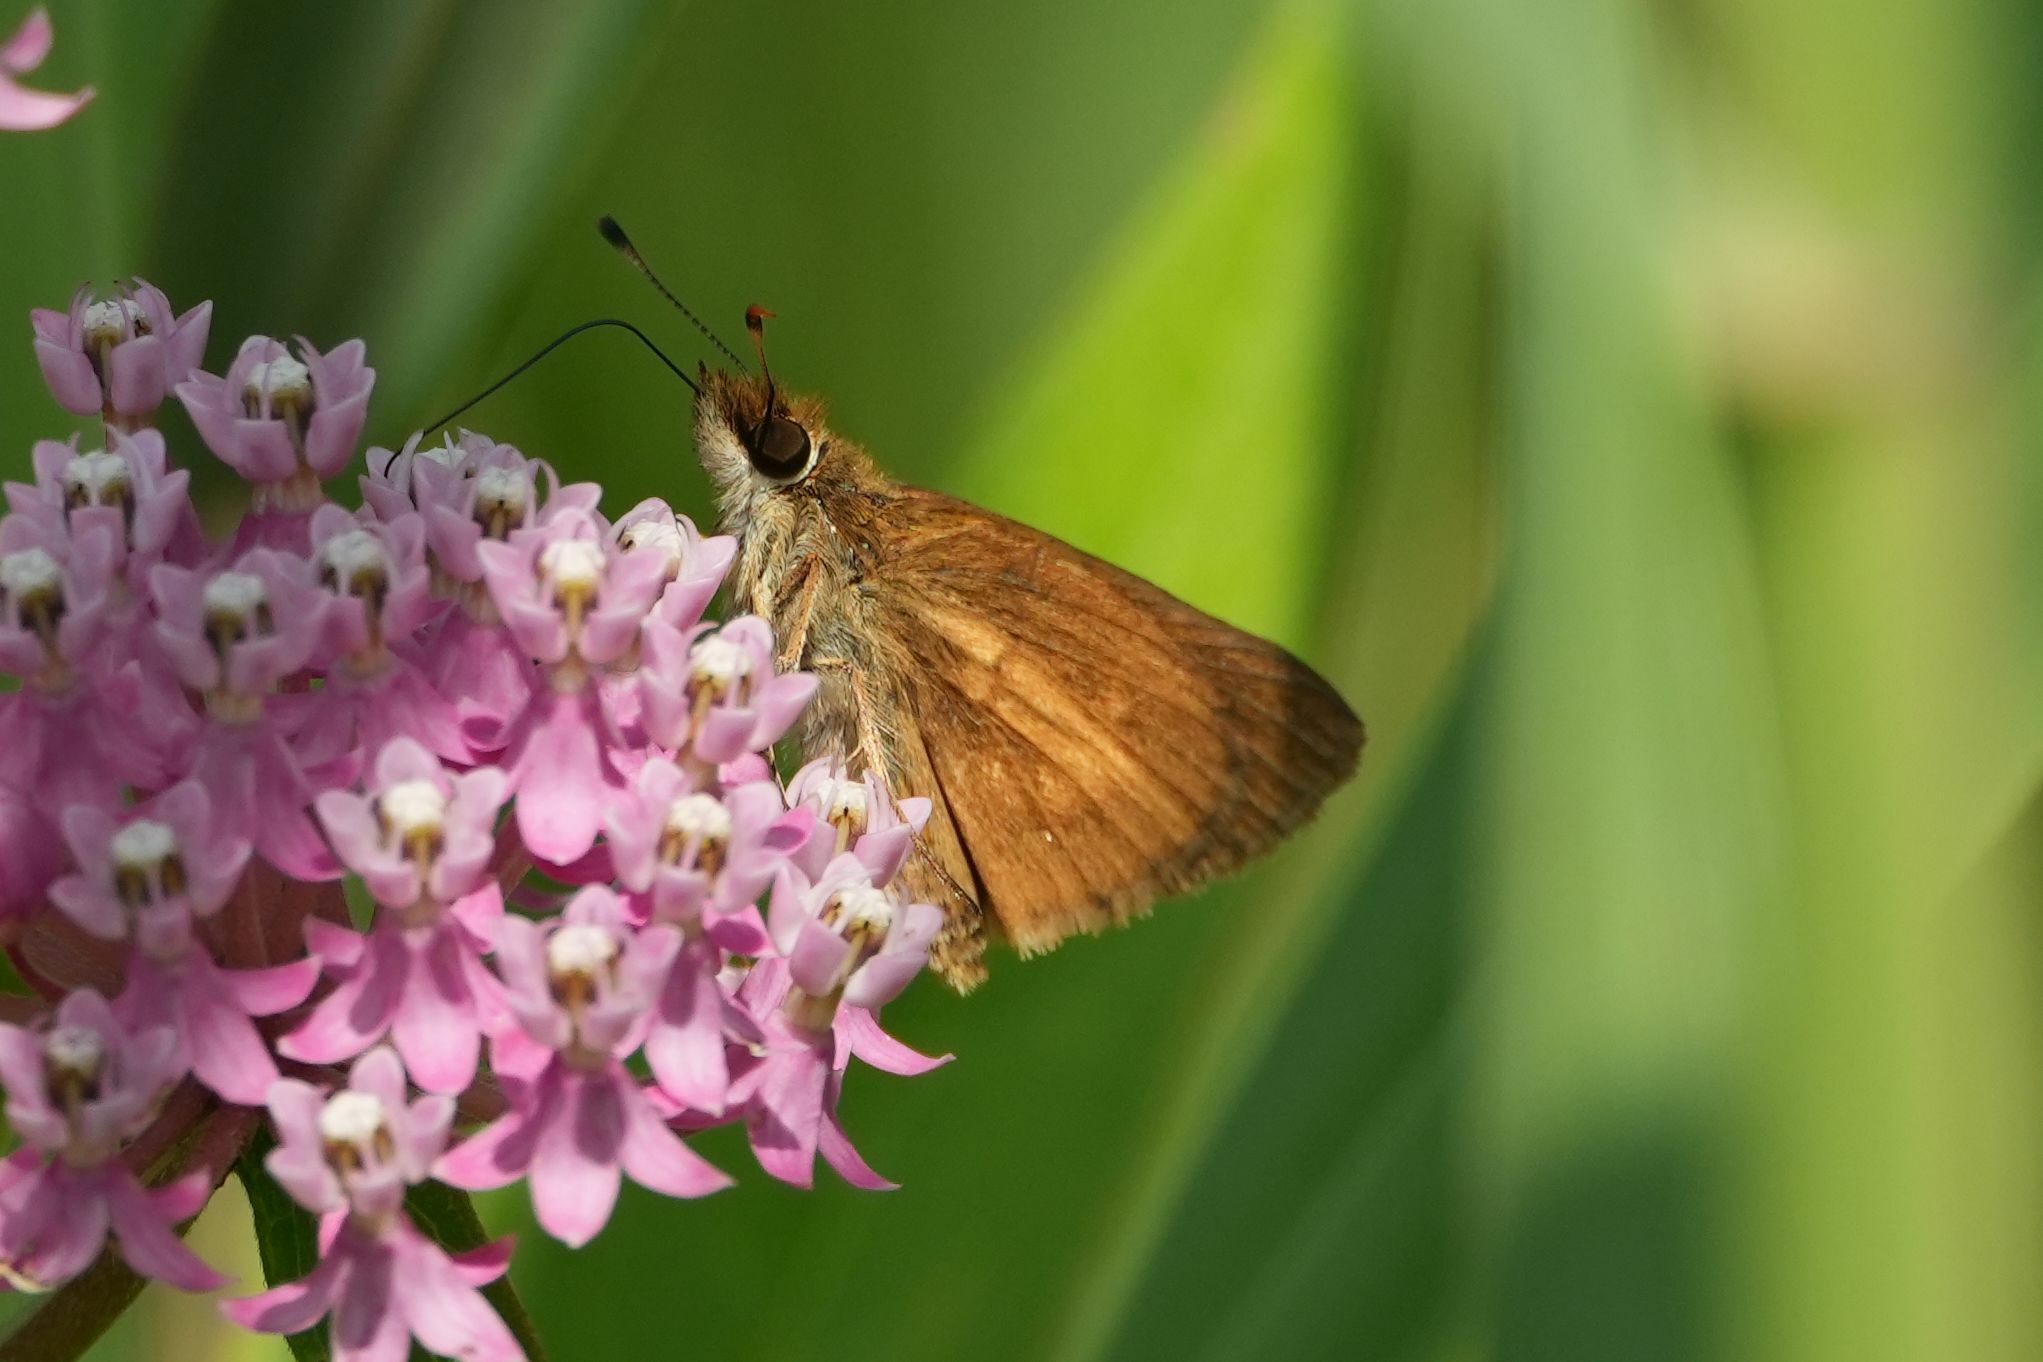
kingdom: Animalia
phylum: Arthropoda
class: Insecta
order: Lepidoptera
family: Hesperiidae
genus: Poanes
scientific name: Poanes viator
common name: Broad-winged skipper
